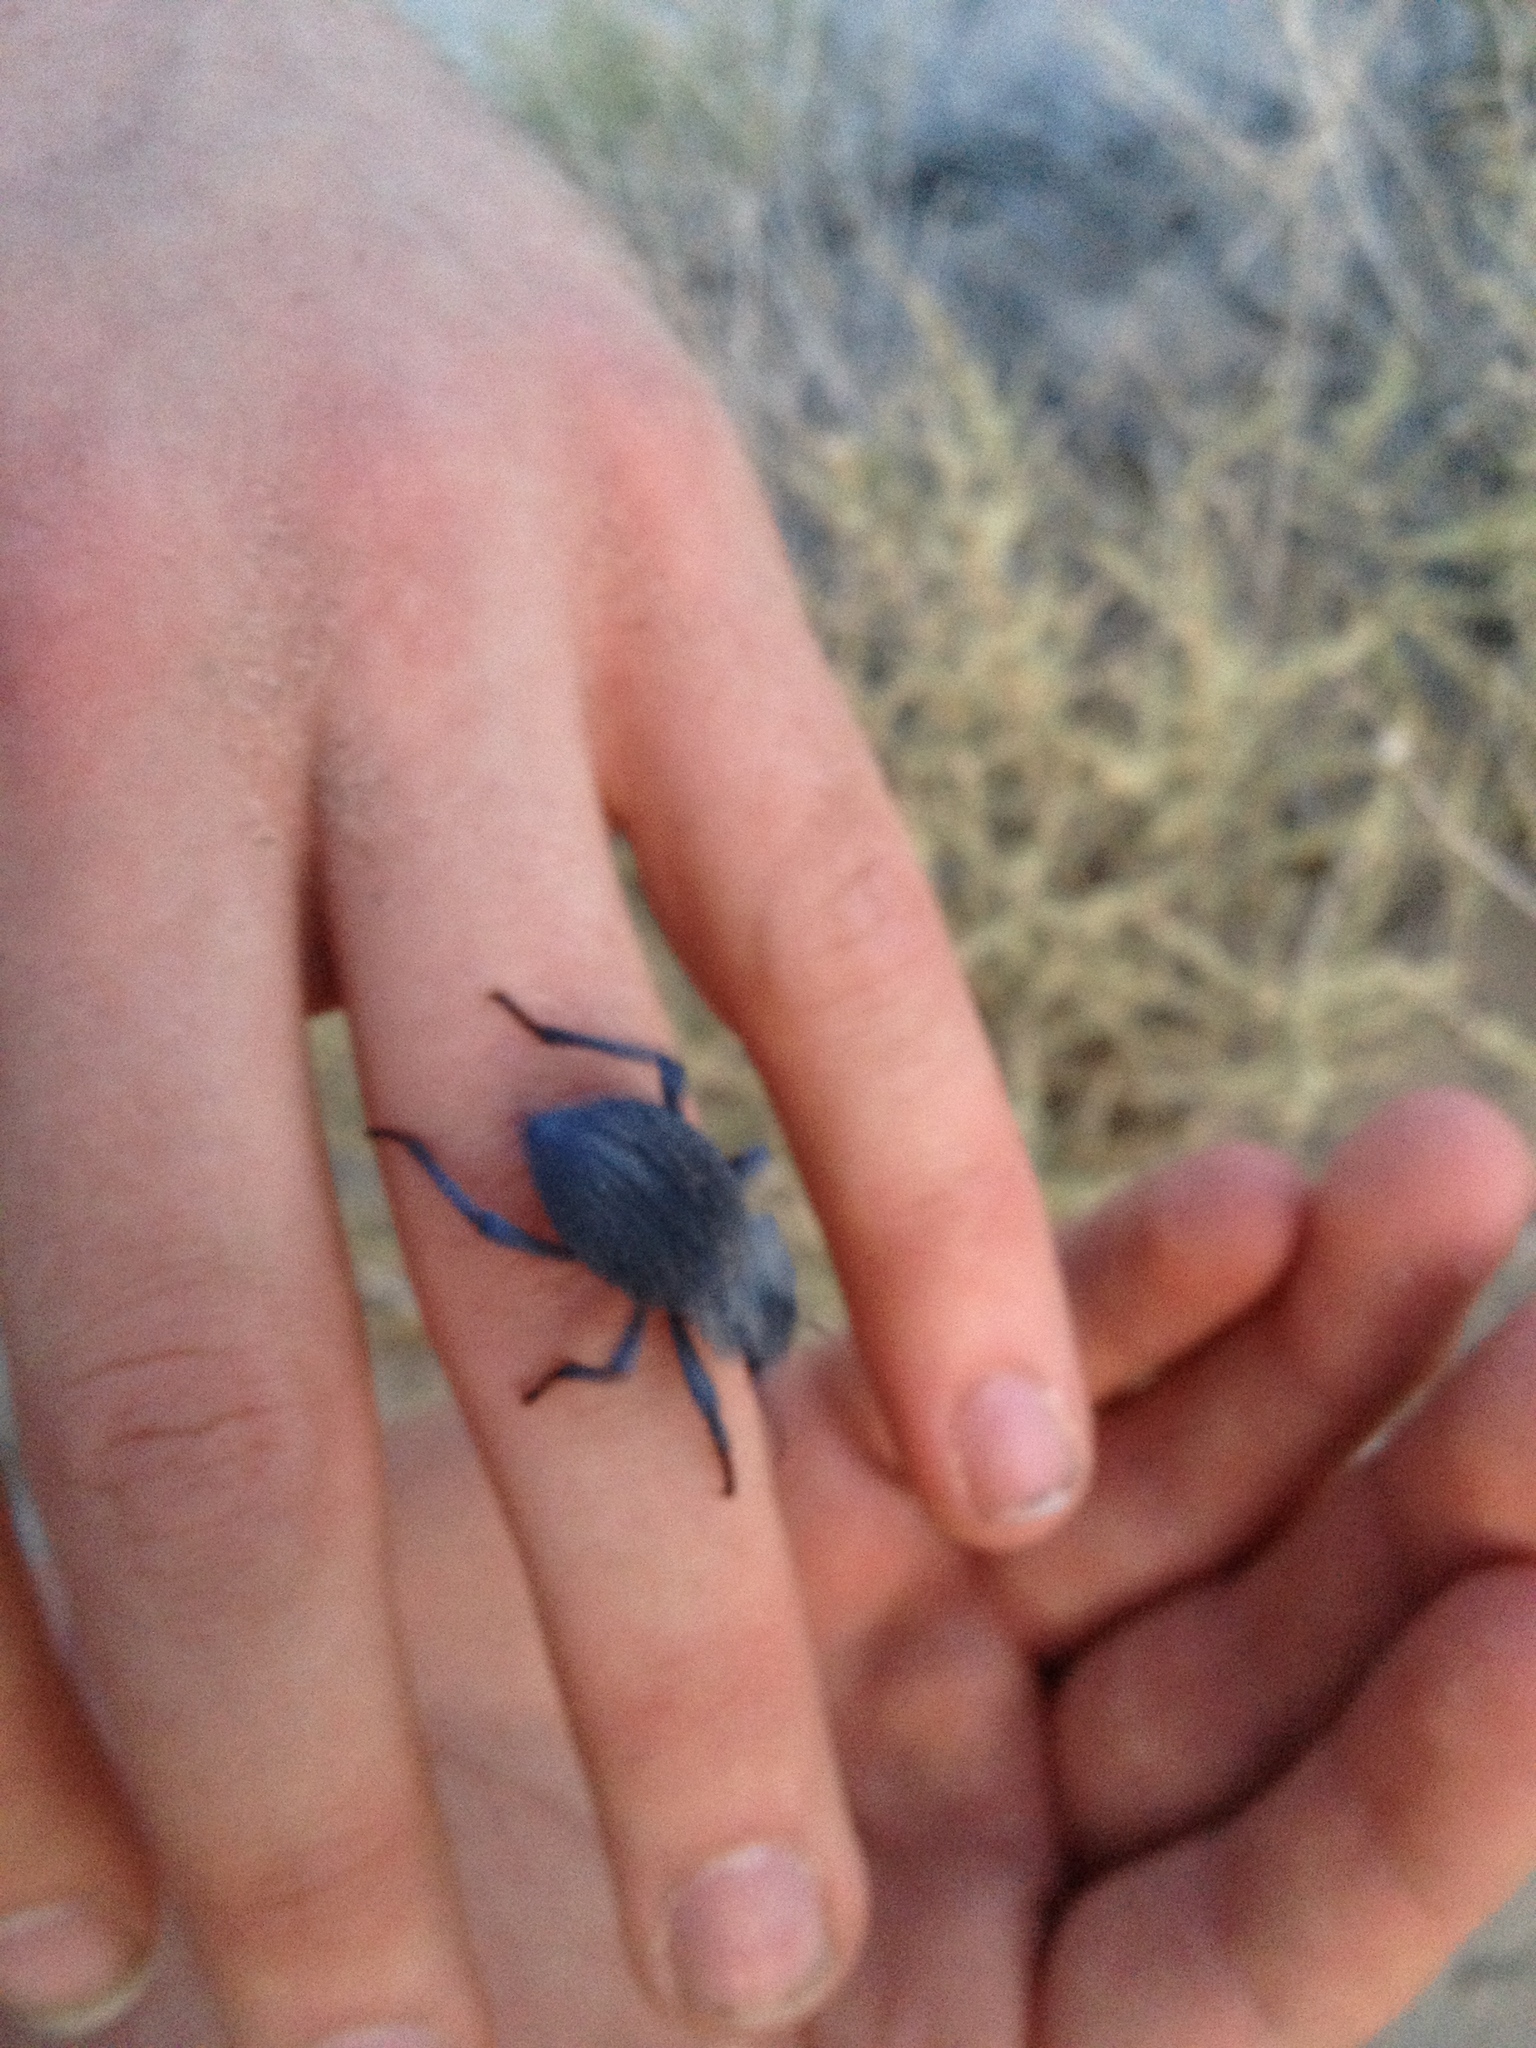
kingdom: Animalia
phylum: Arthropoda
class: Insecta
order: Coleoptera
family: Tenebrionidae
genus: Asbolus
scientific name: Asbolus verrucosus
